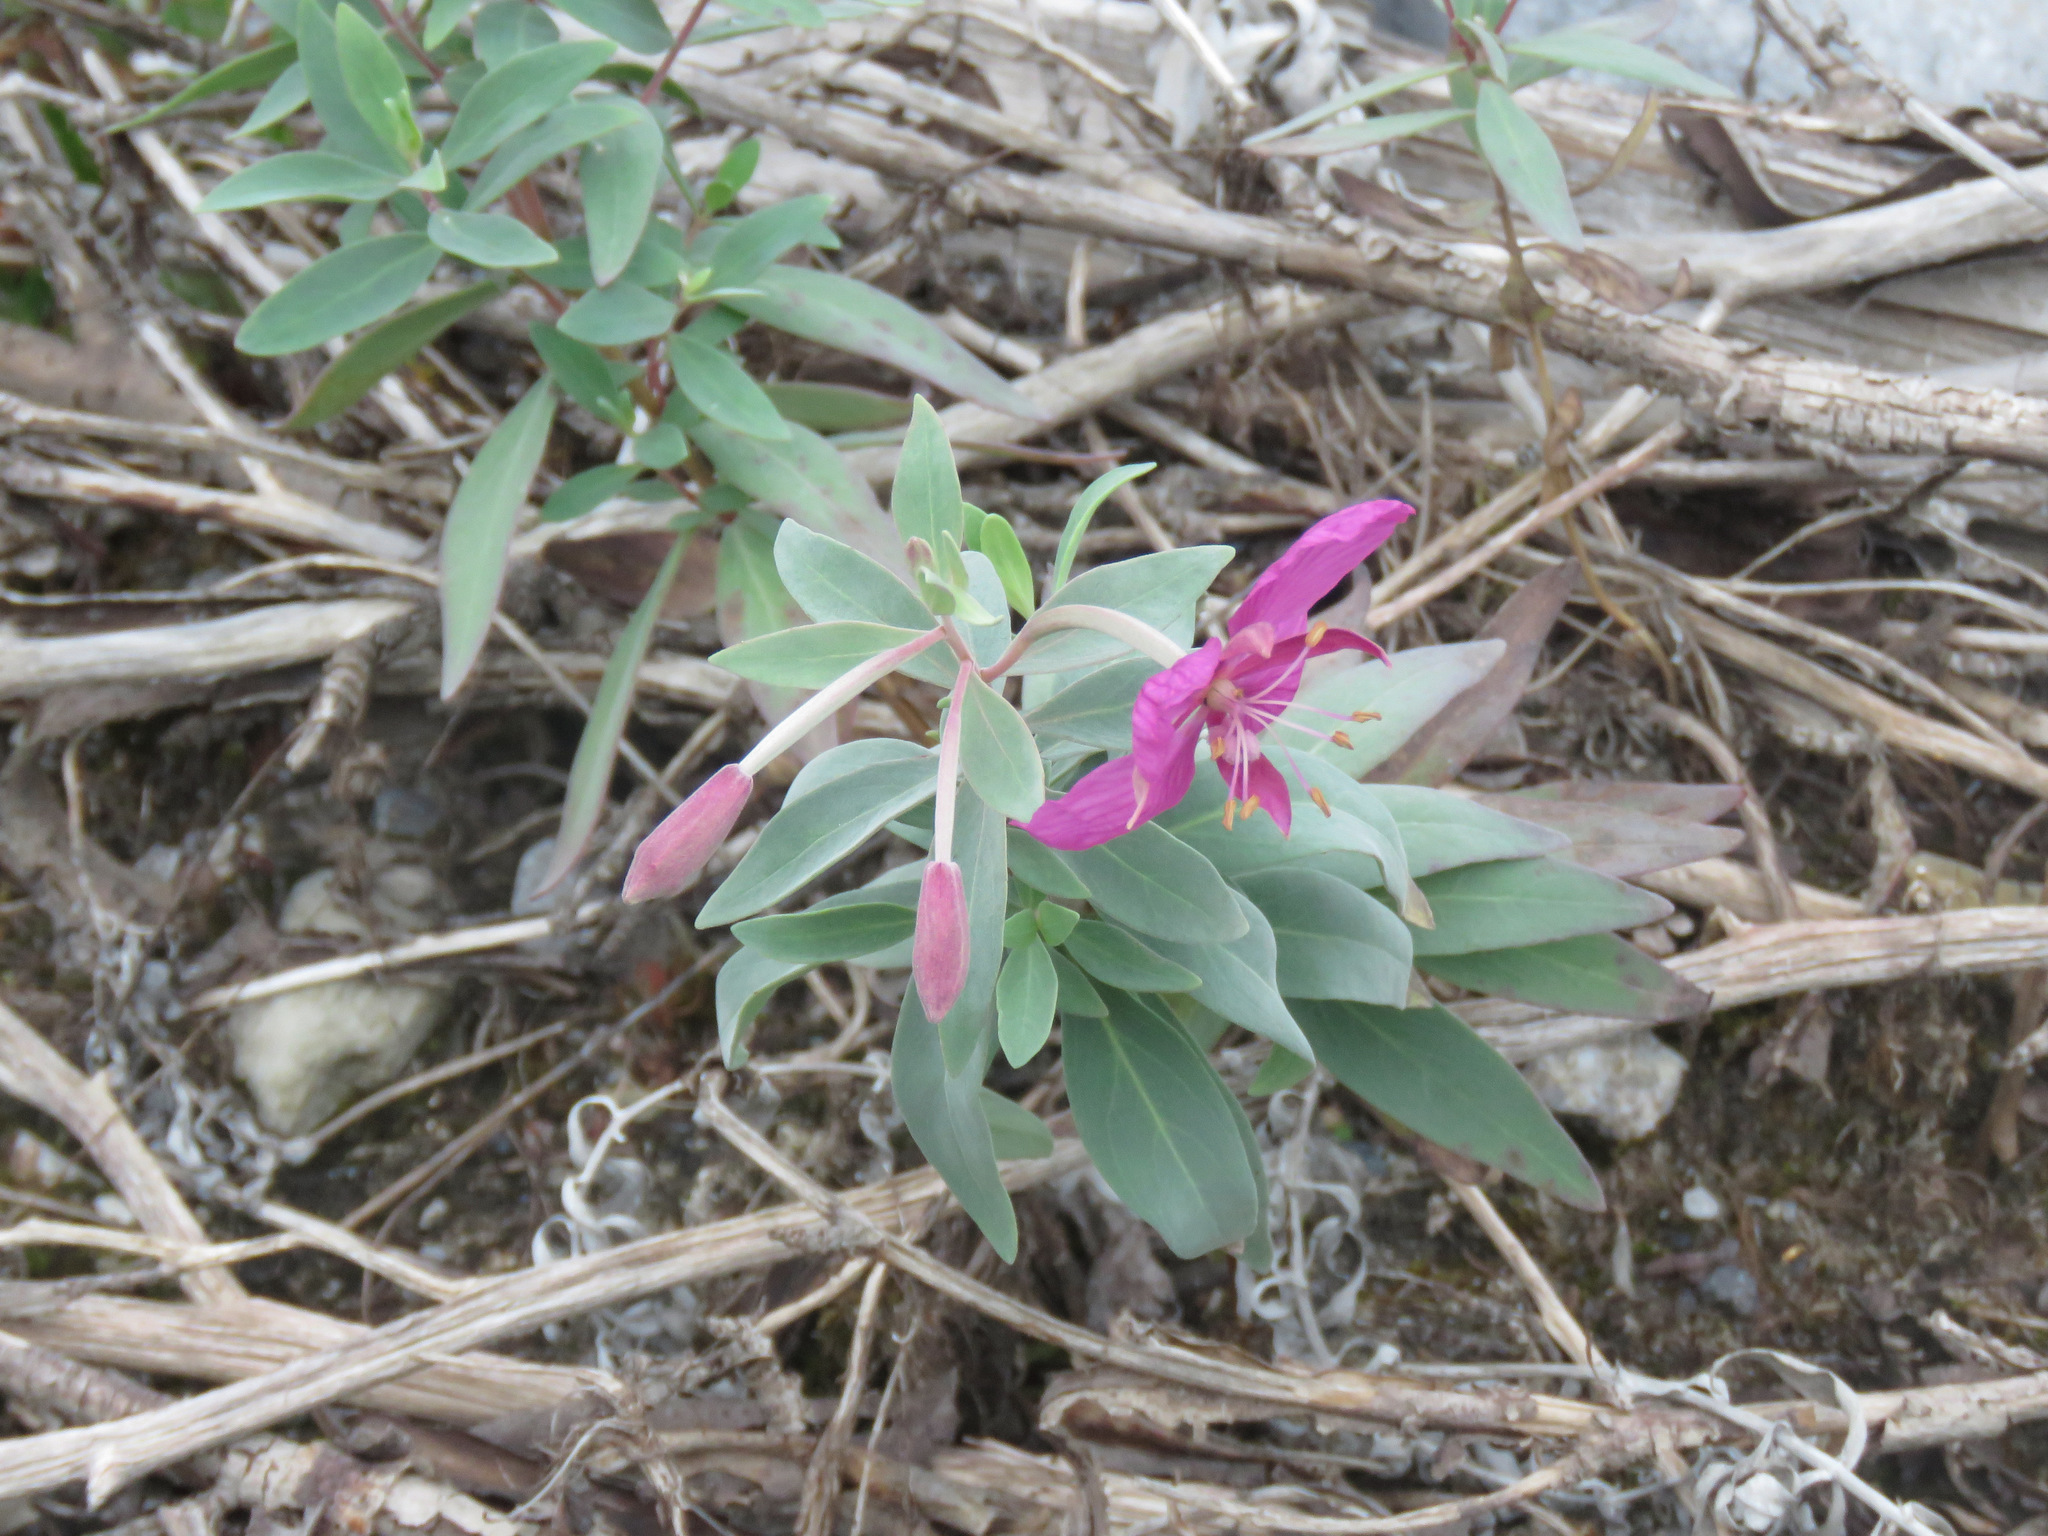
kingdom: Plantae
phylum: Tracheophyta
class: Magnoliopsida
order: Myrtales
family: Onagraceae
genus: Chamaenerion
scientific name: Chamaenerion latifolium
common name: Dwarf fireweed
